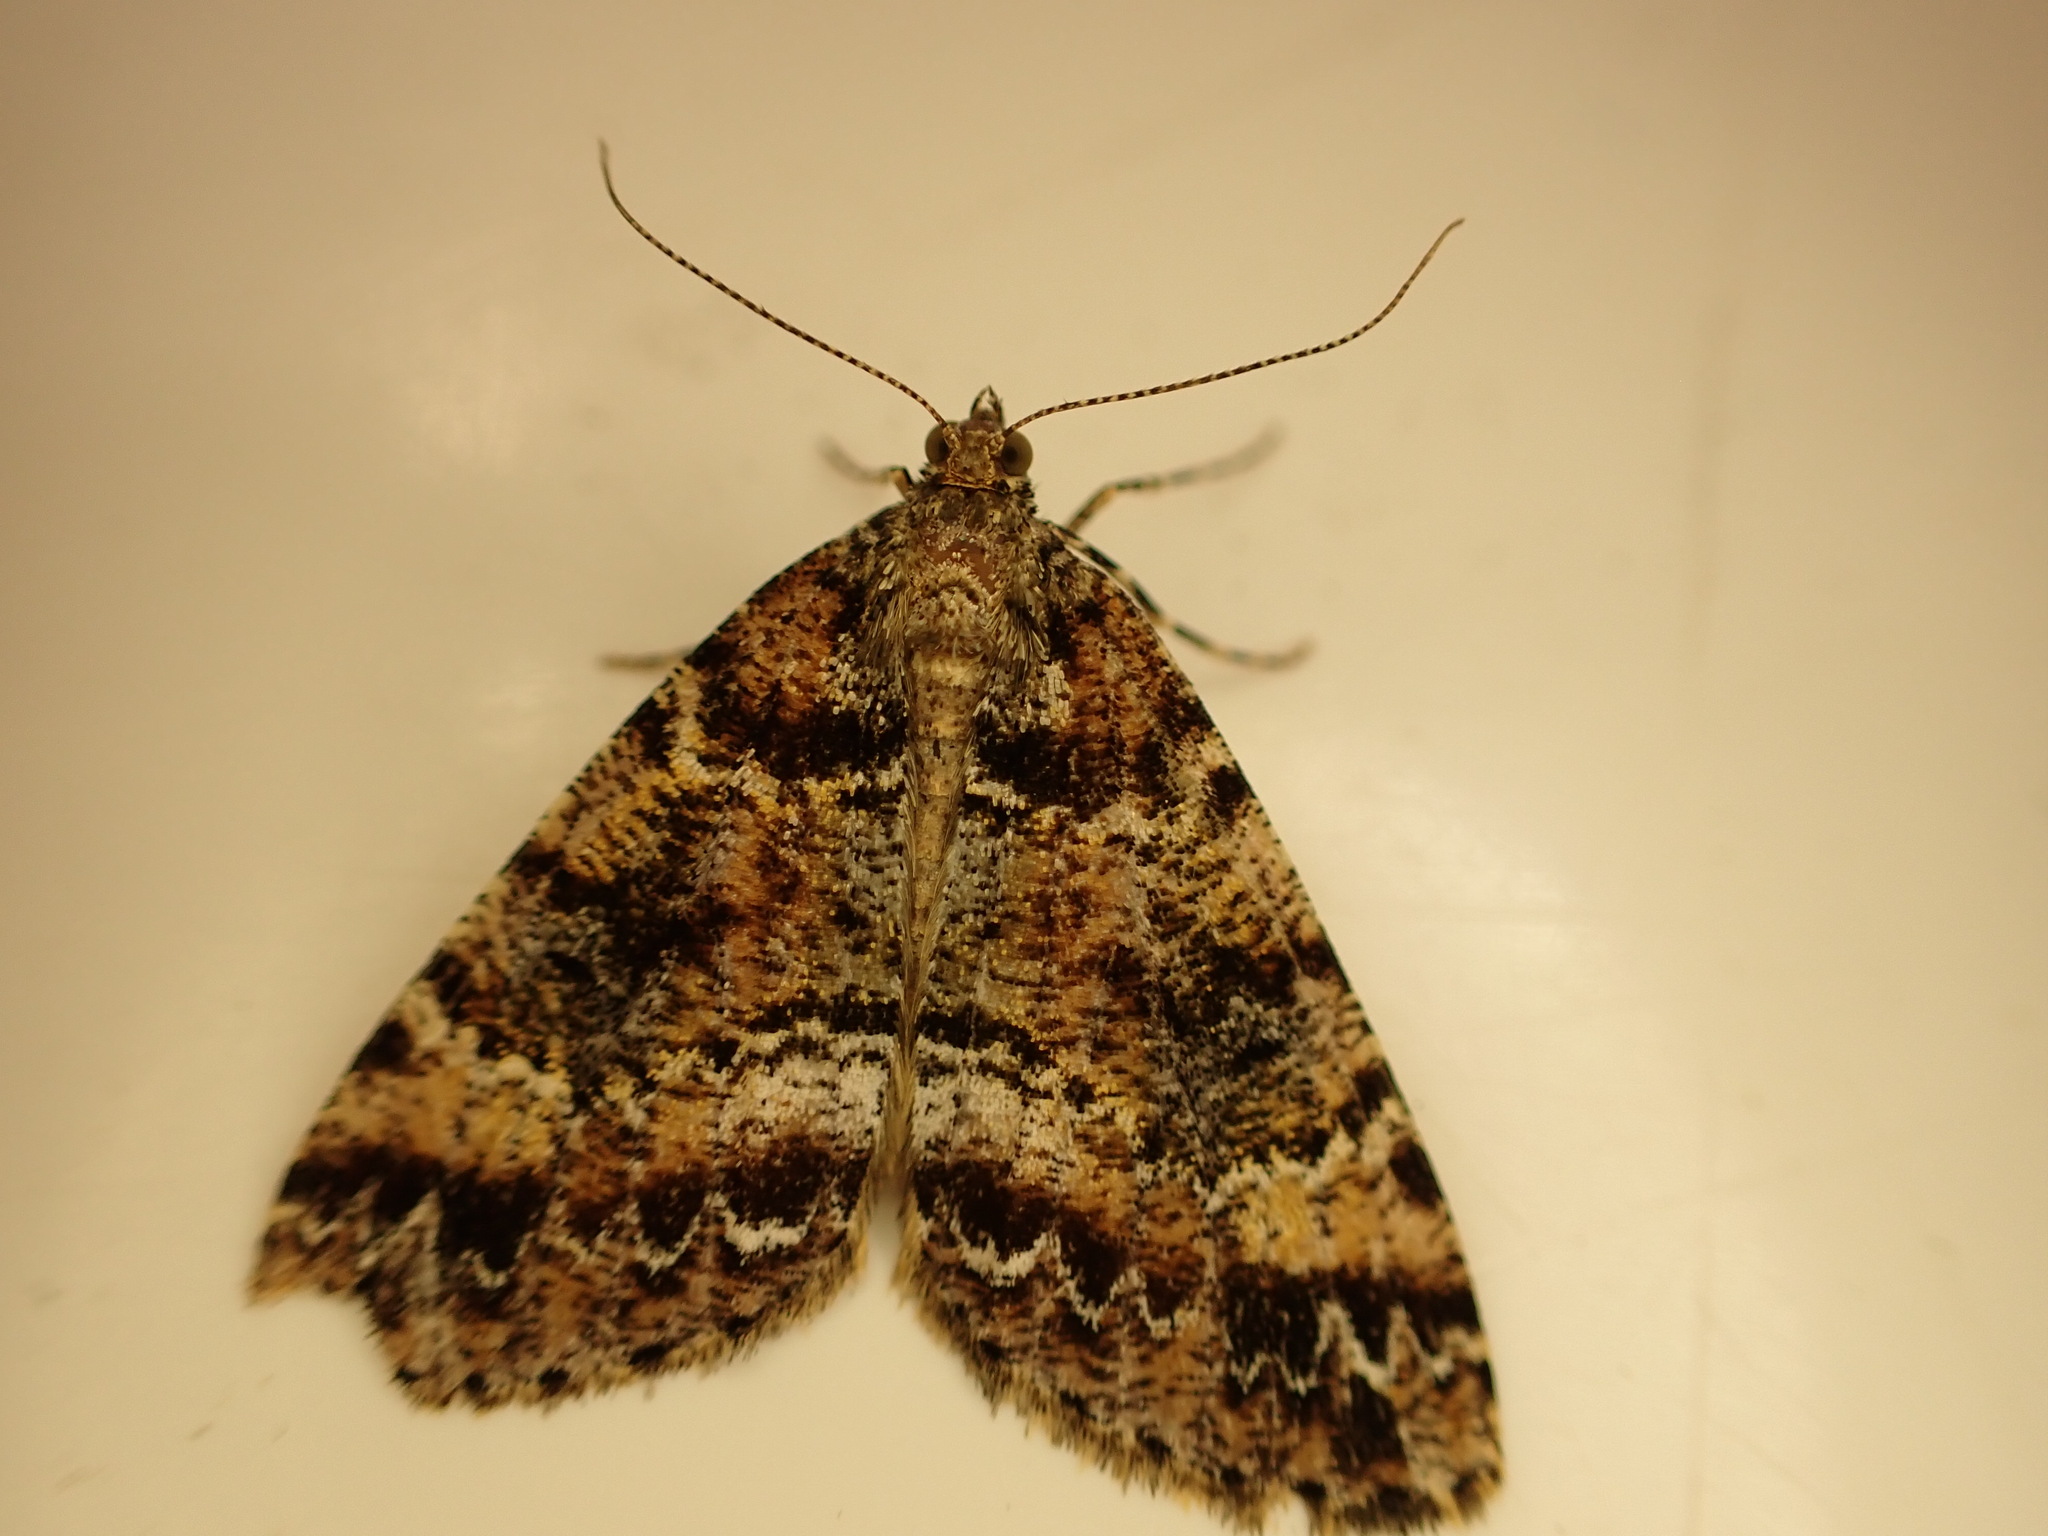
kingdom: Animalia
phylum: Arthropoda
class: Insecta
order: Lepidoptera
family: Geometridae
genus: Pseudocoremia
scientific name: Pseudocoremia productata
